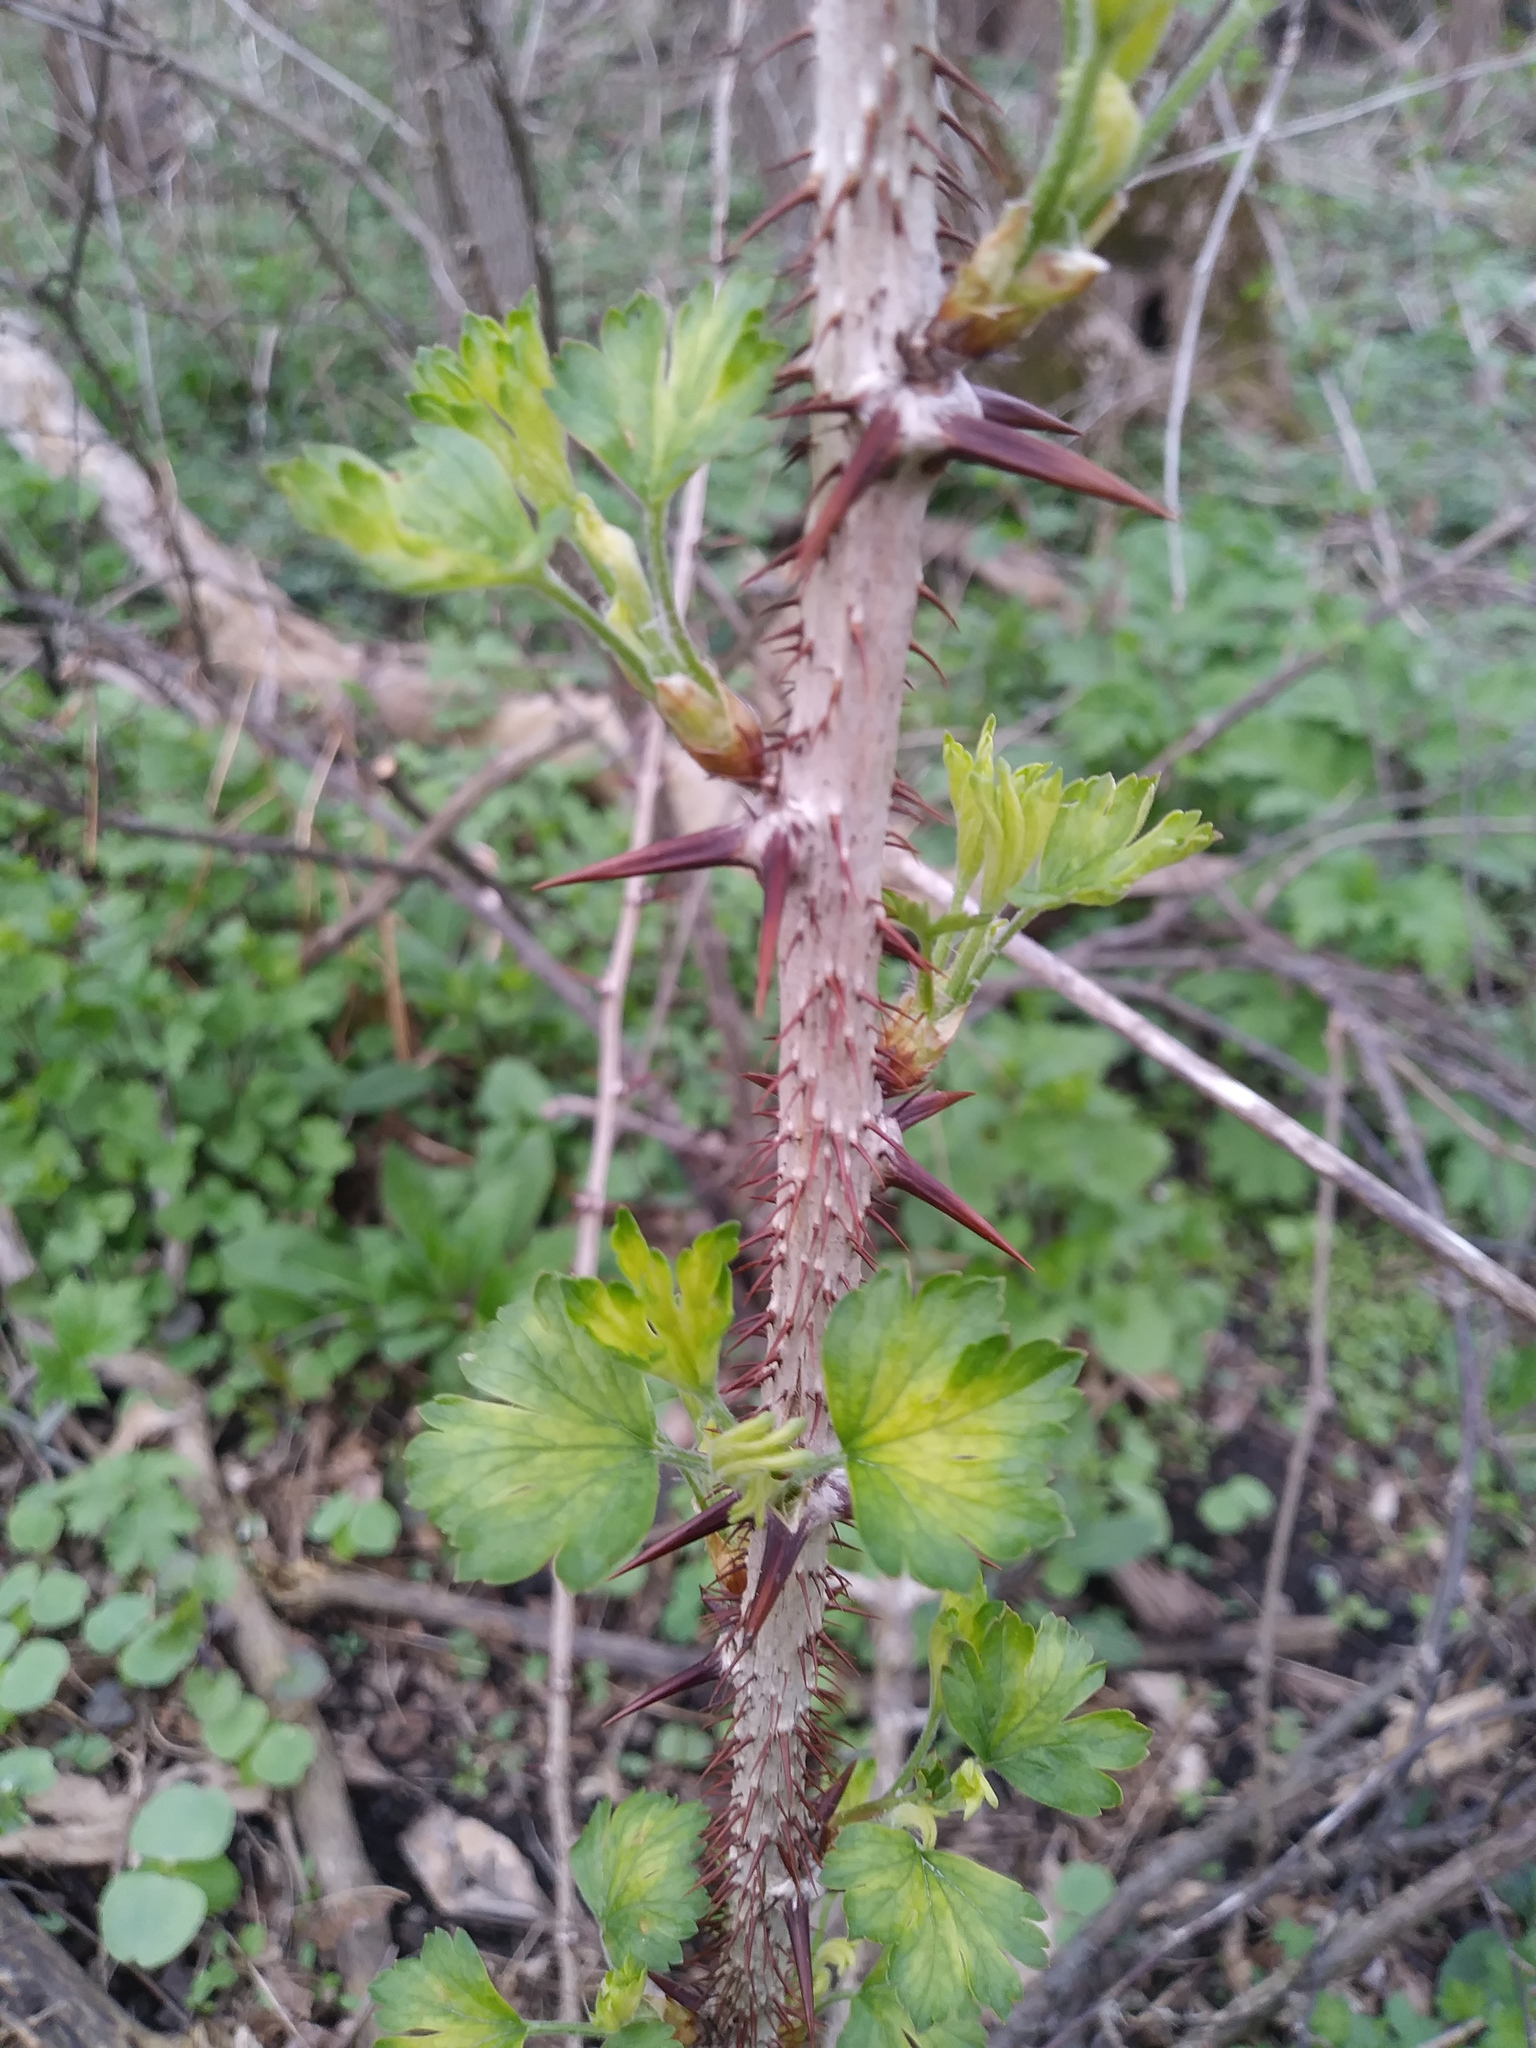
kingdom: Plantae
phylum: Tracheophyta
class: Magnoliopsida
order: Saxifragales
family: Grossulariaceae
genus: Ribes
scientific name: Ribes missouriense
